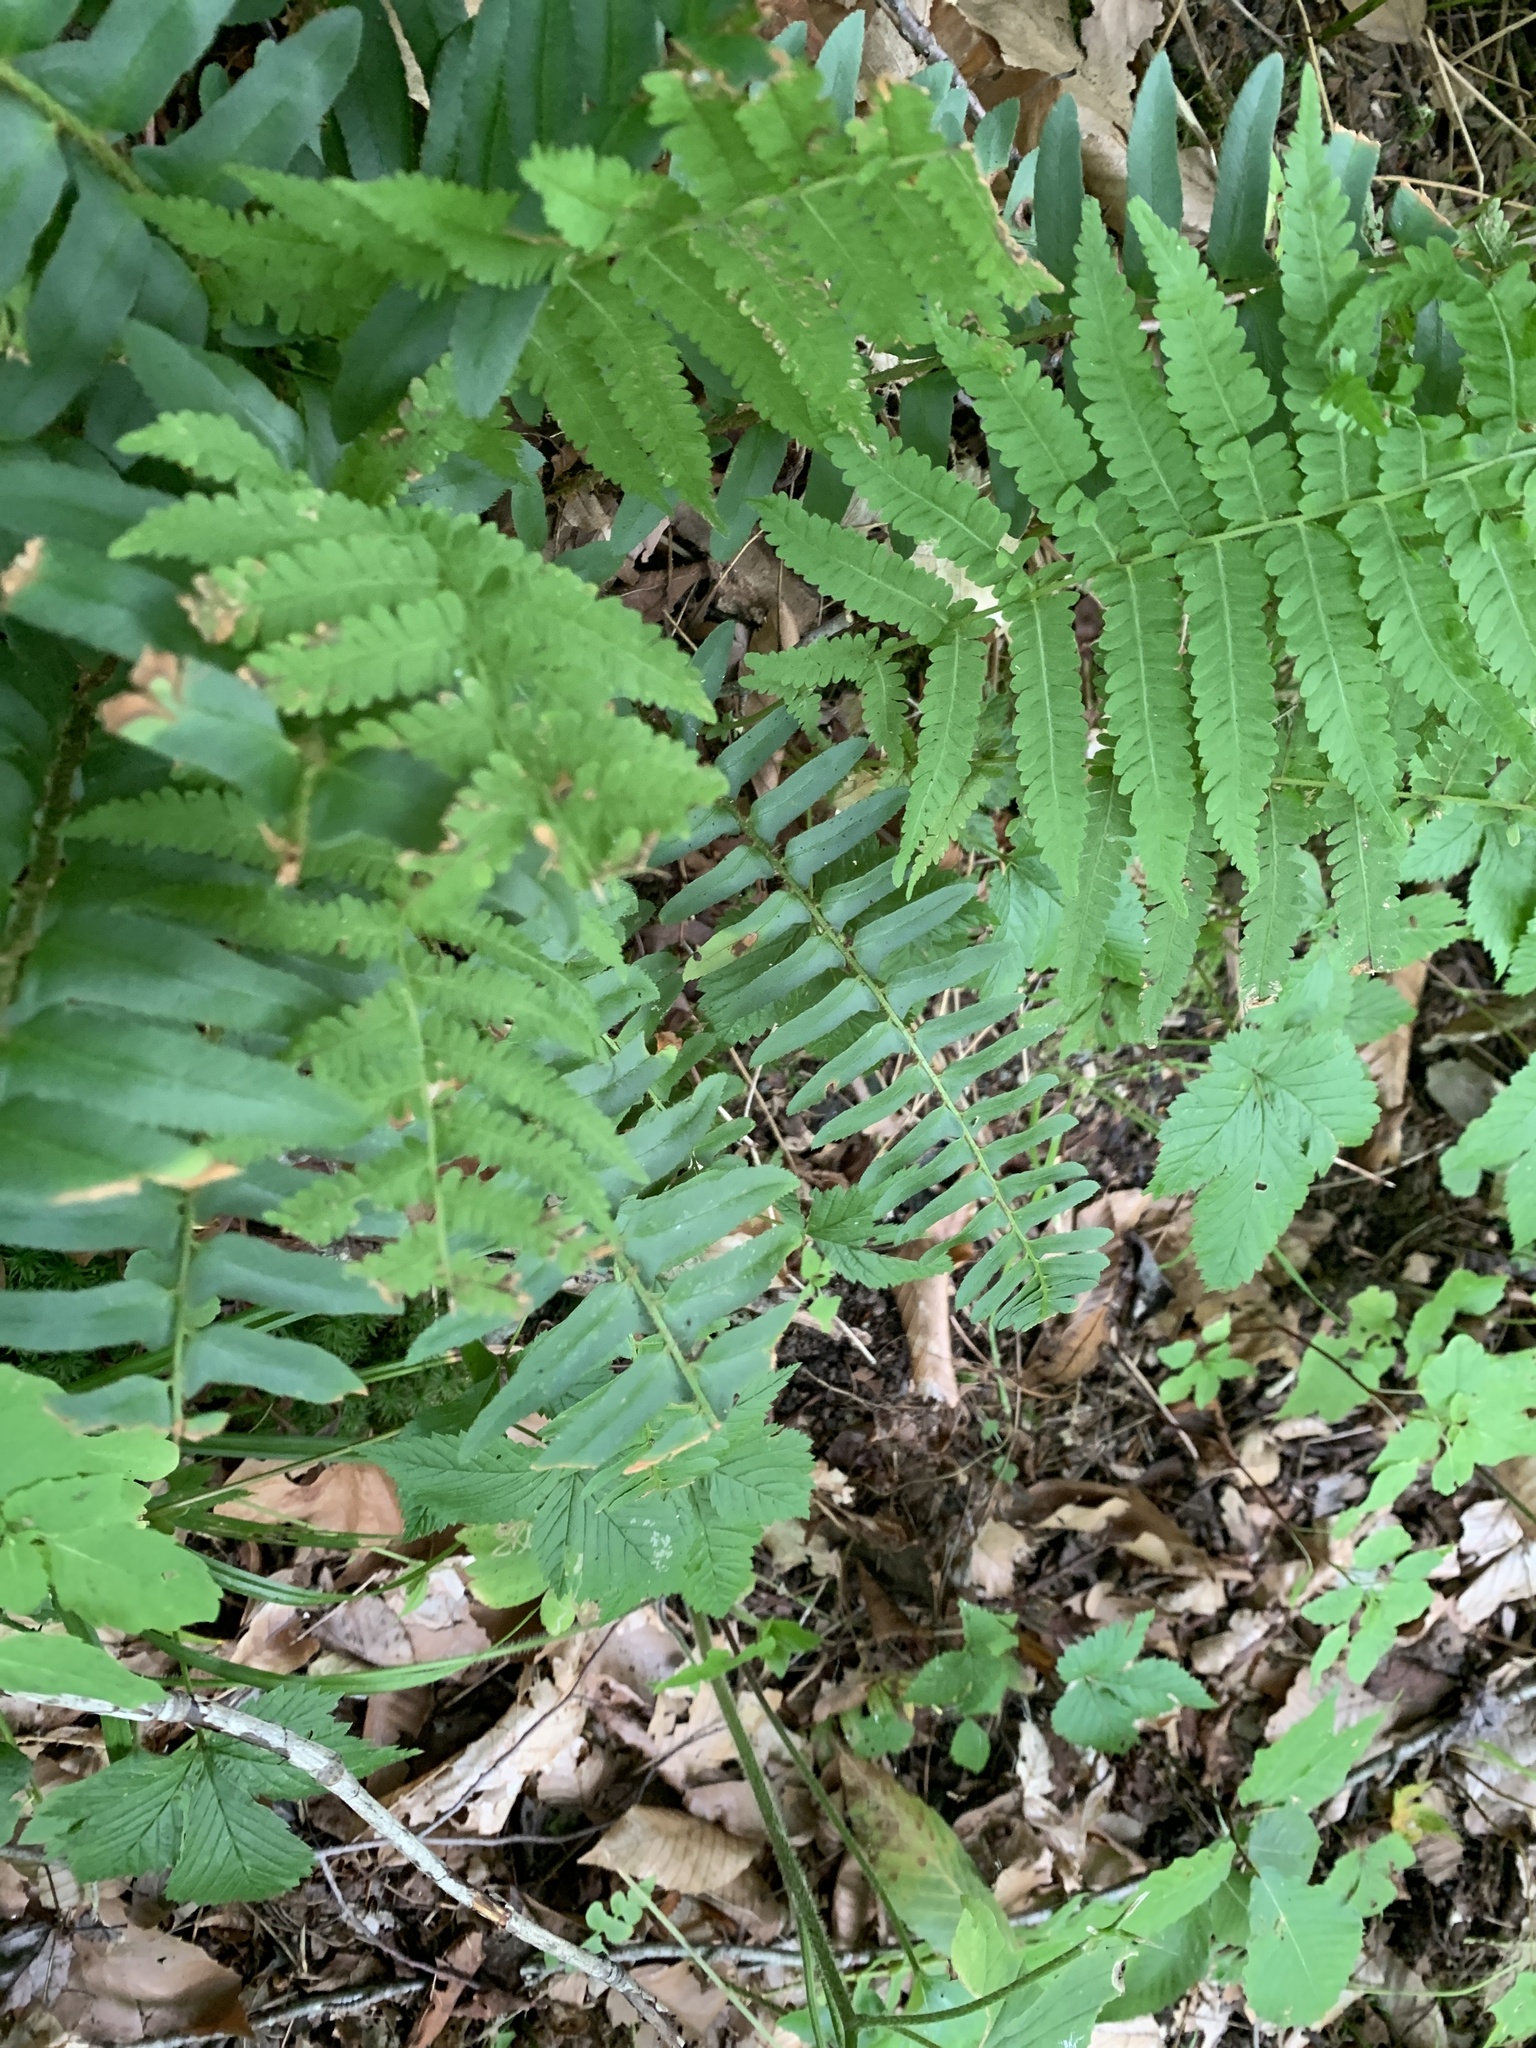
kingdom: Plantae
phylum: Tracheophyta
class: Polypodiopsida
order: Polypodiales
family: Dryopteridaceae
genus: Polystichum
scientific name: Polystichum acrostichoides
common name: Christmas fern
